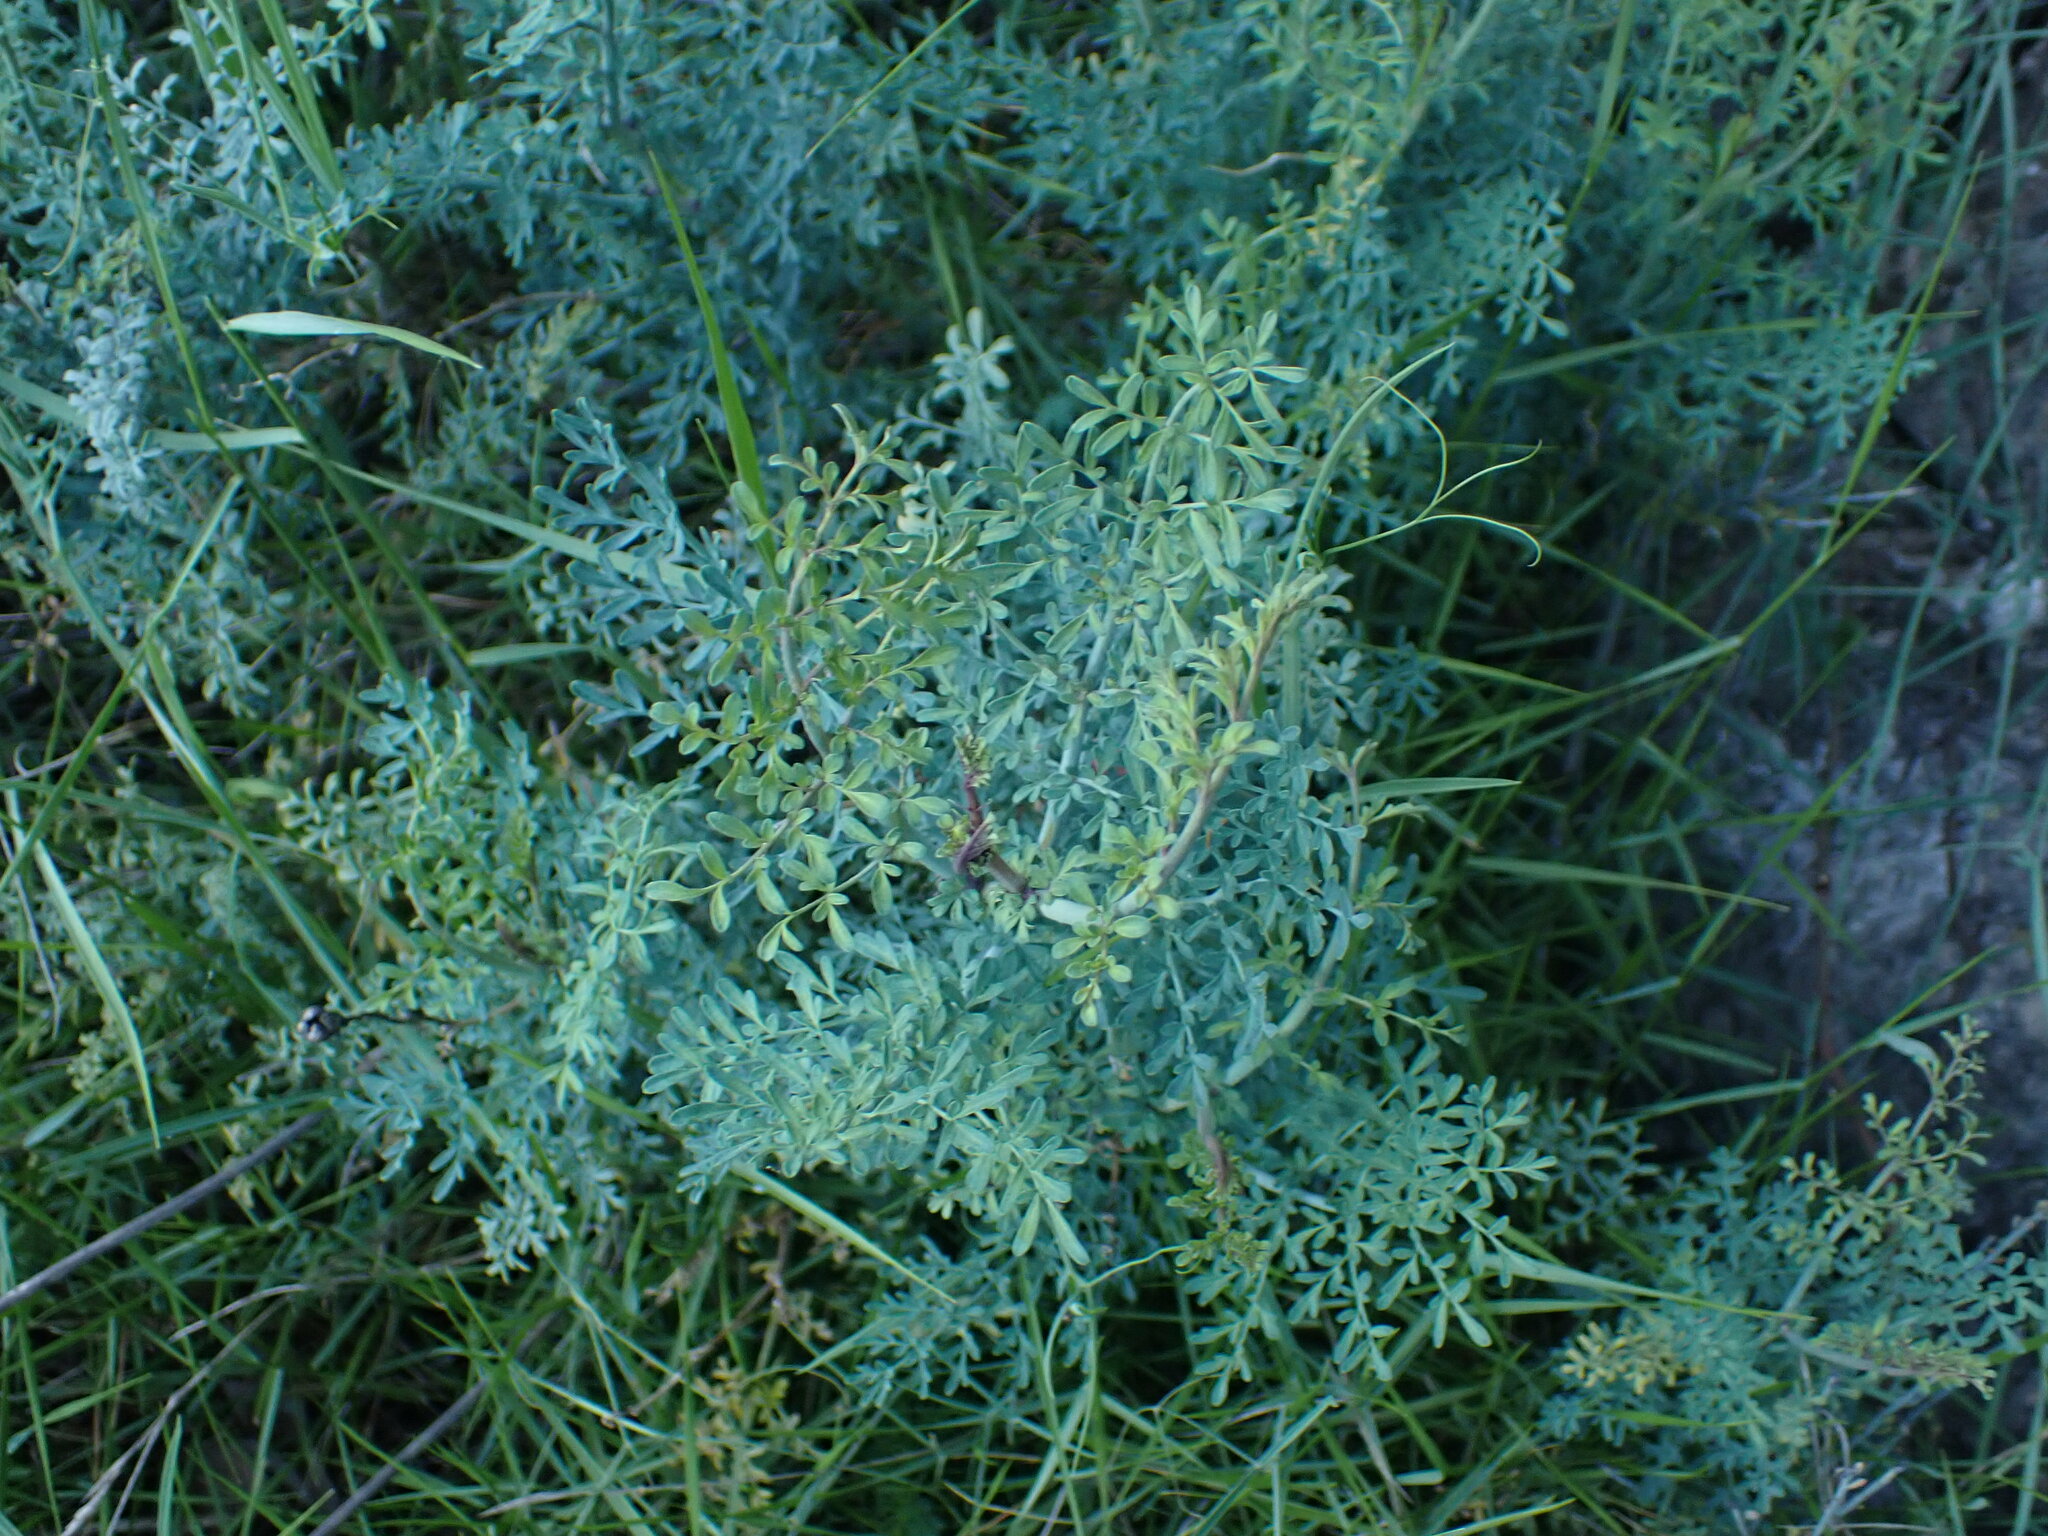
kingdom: Plantae
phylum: Tracheophyta
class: Magnoliopsida
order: Sapindales
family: Rutaceae
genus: Ruta
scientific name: Ruta angustifolia
